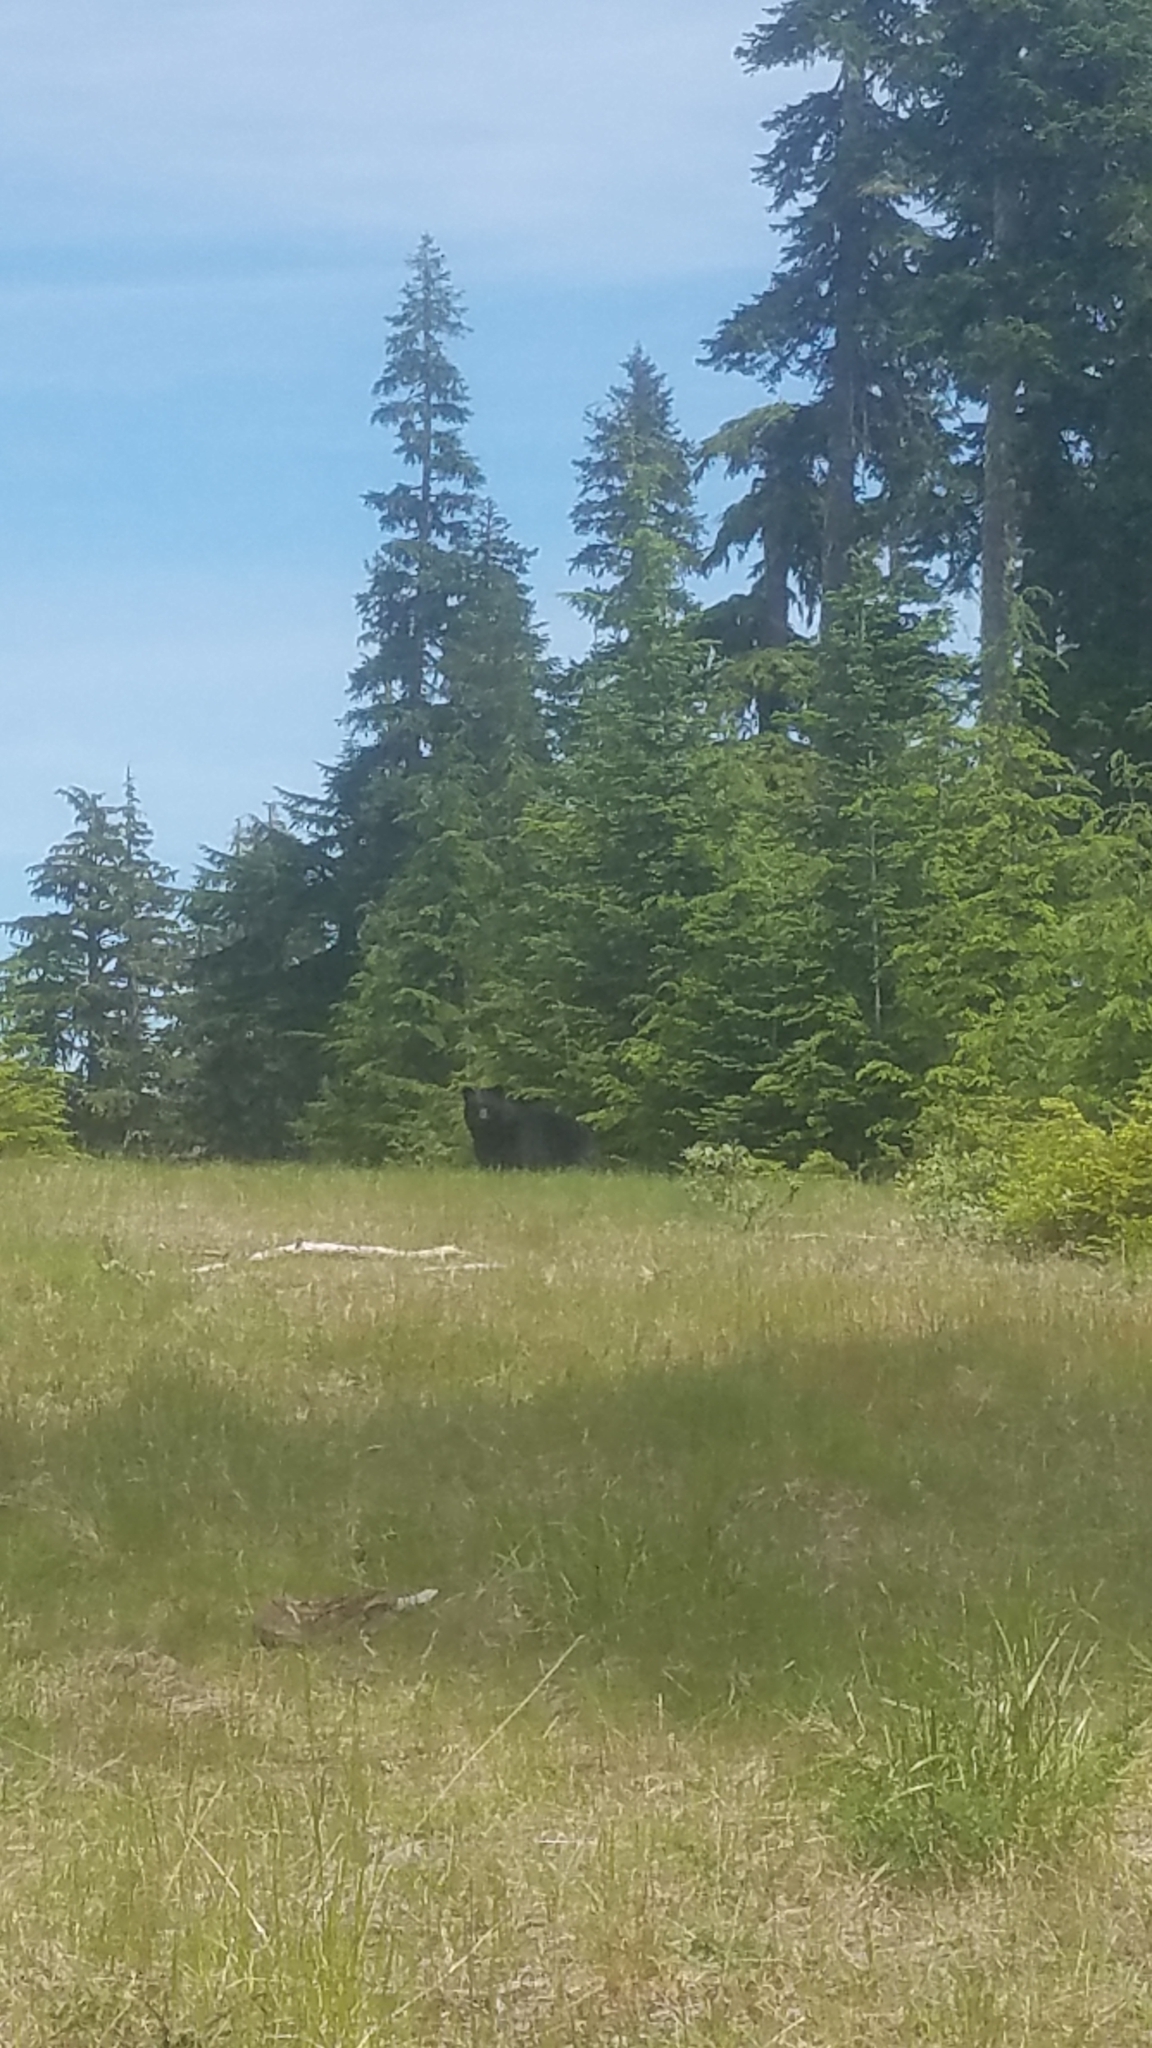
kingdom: Animalia
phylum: Chordata
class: Mammalia
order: Carnivora
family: Ursidae
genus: Ursus
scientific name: Ursus americanus
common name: American black bear
